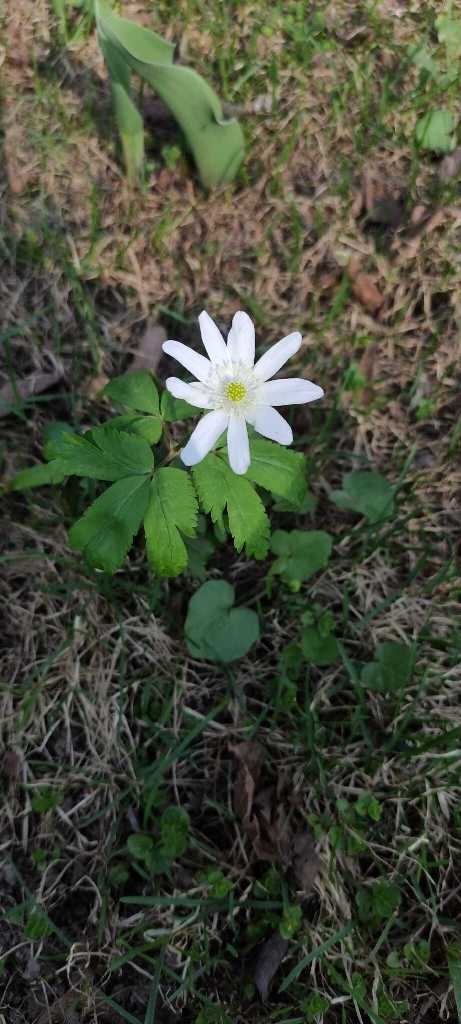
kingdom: Plantae
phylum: Tracheophyta
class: Magnoliopsida
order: Ranunculales
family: Ranunculaceae
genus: Anemone
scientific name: Anemone altaica
